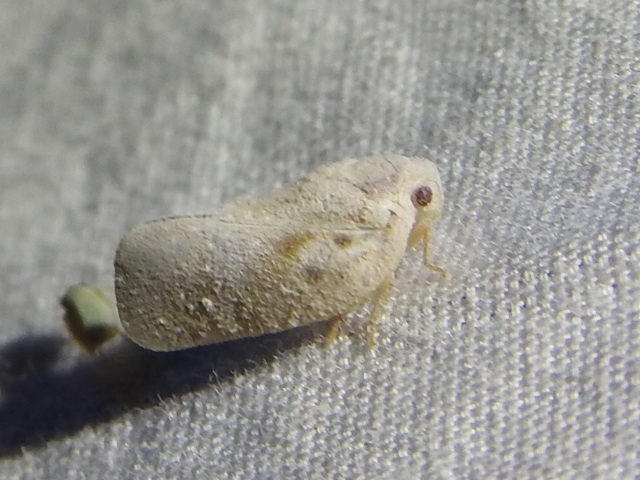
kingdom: Animalia
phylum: Arthropoda
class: Insecta
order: Hemiptera
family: Flatidae
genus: Metcalfa
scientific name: Metcalfa pruinosa
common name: Citrus flatid planthopper
